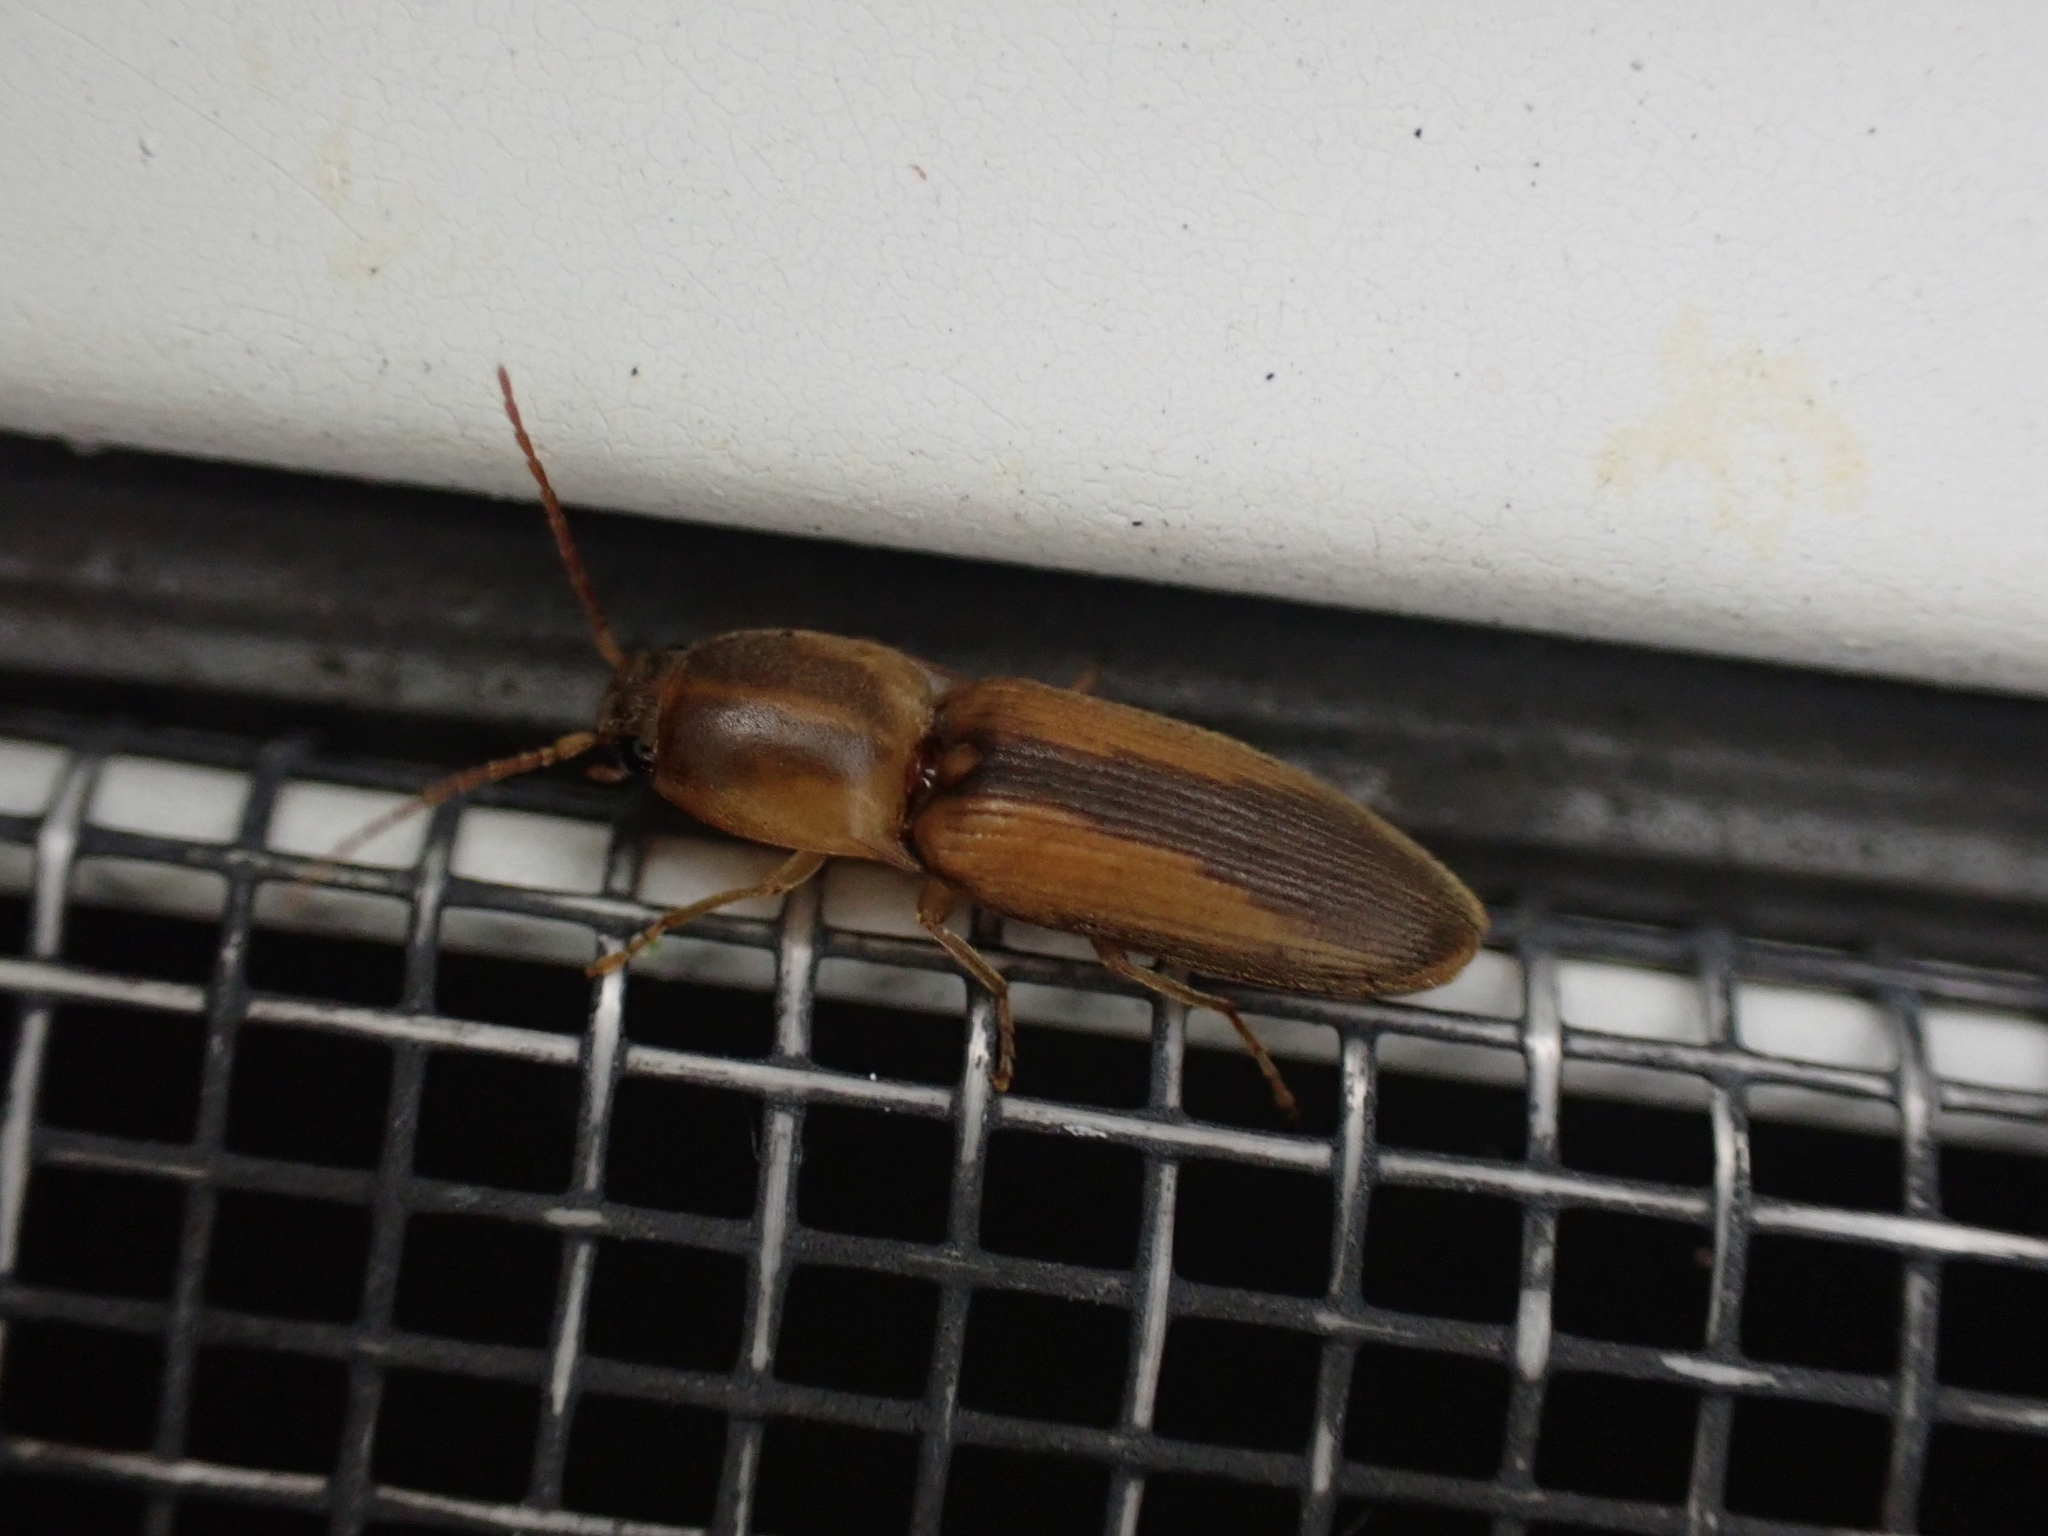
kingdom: Animalia
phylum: Arthropoda
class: Insecta
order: Coleoptera
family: Elateridae
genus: Monocrepidius
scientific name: Monocrepidius aversus
